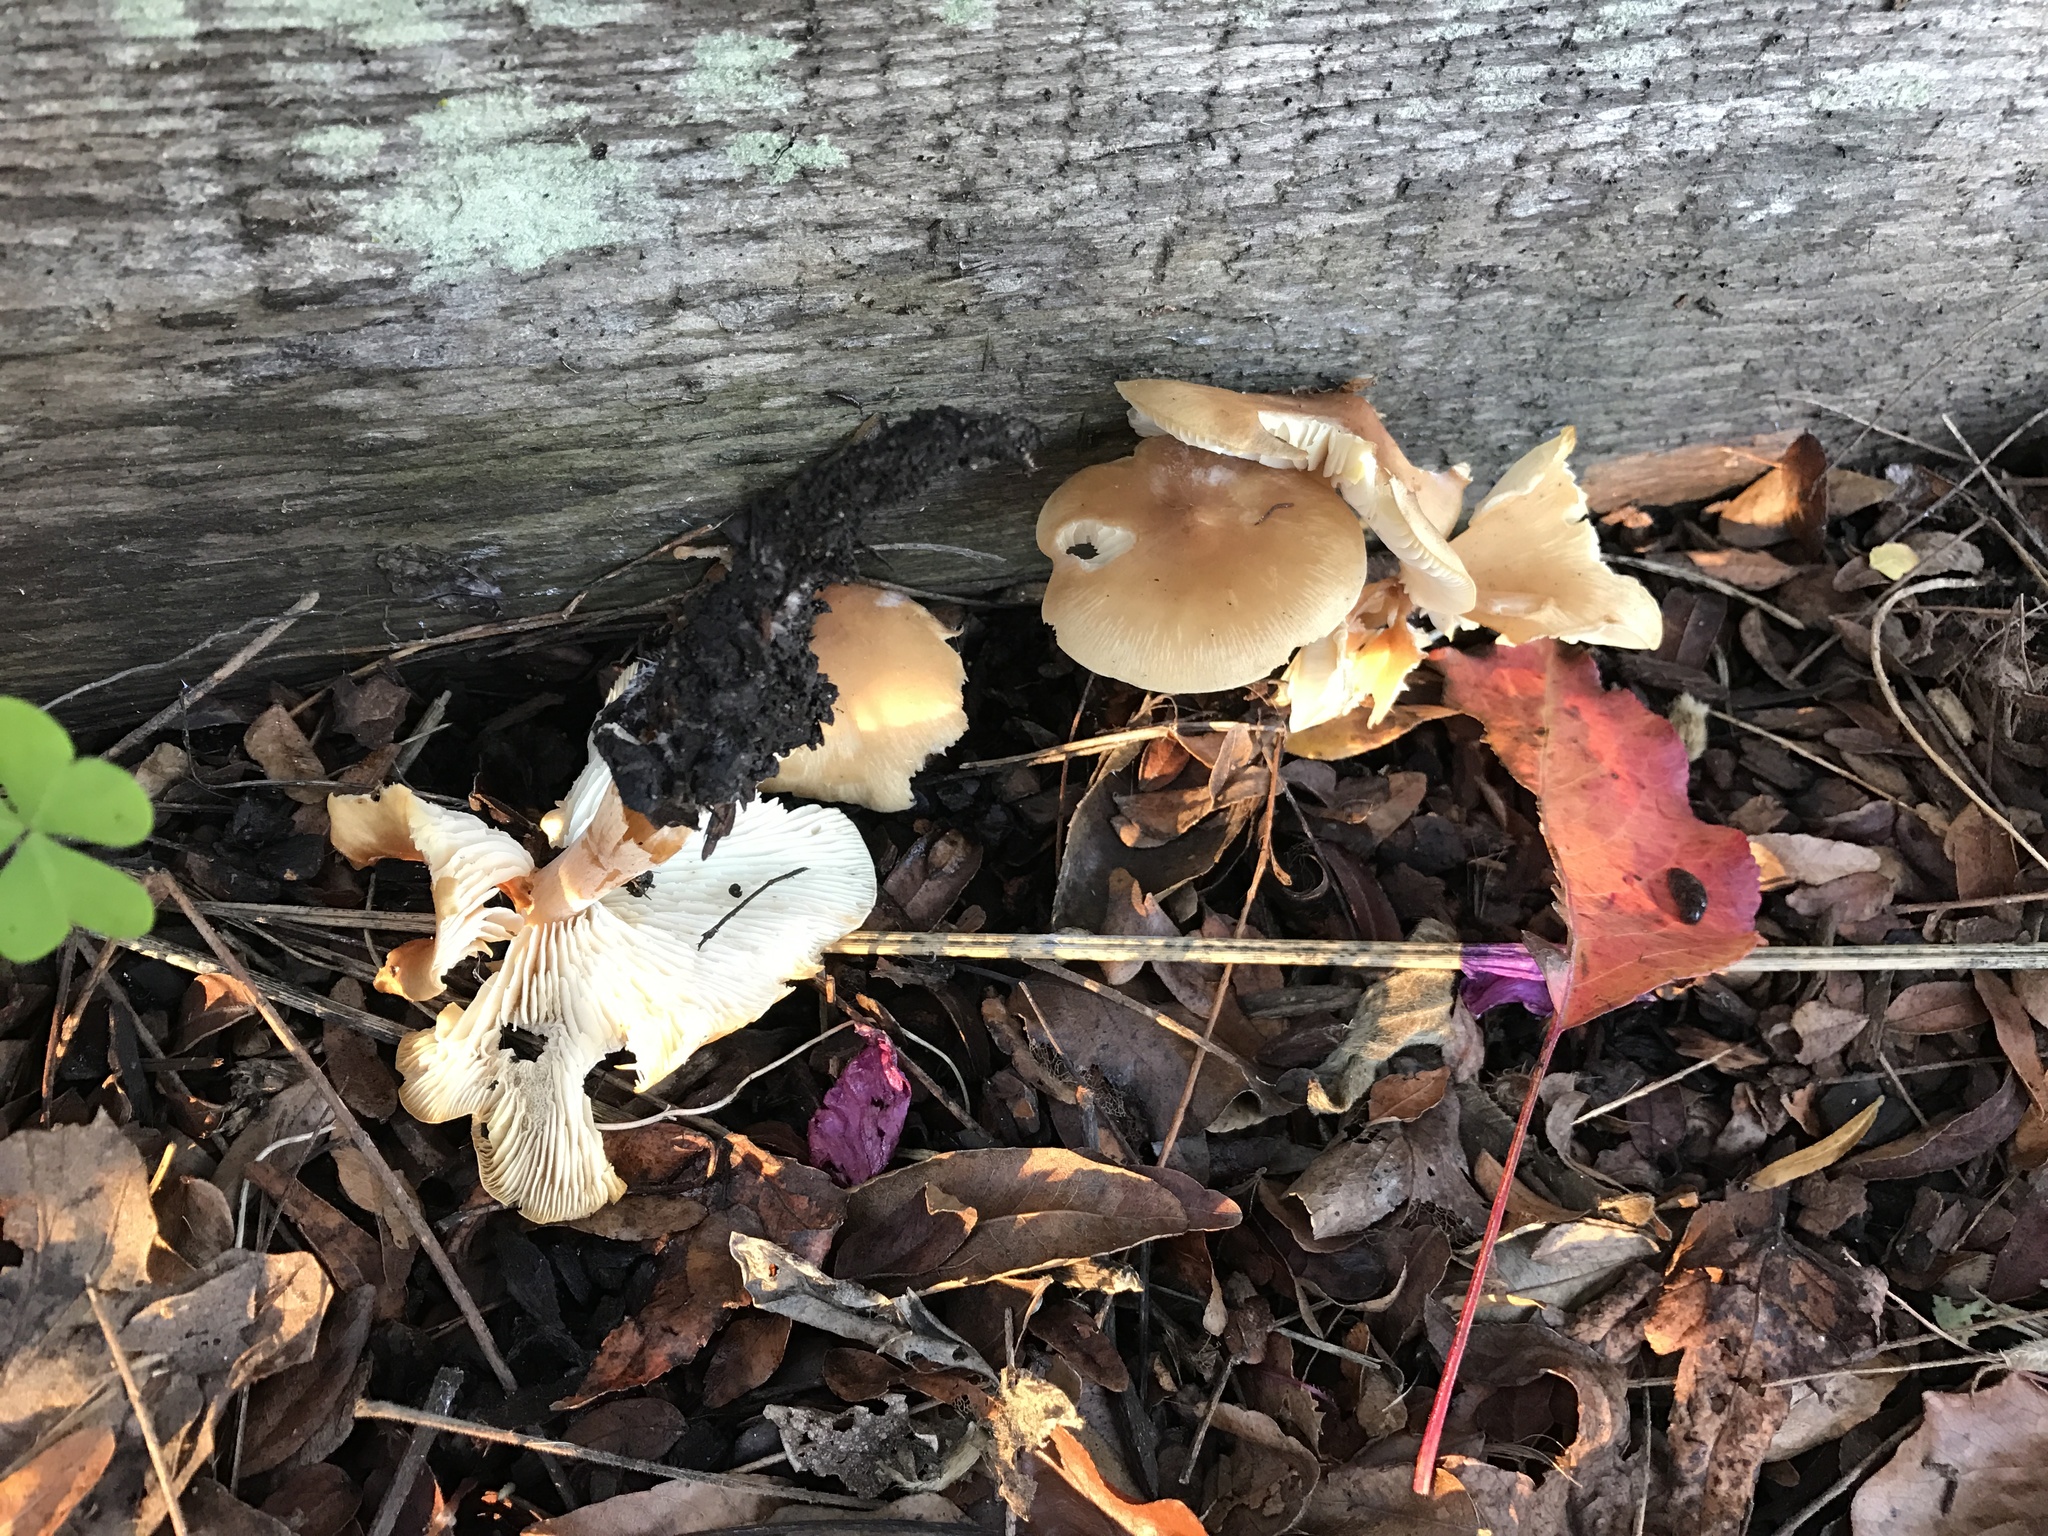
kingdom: Fungi
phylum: Basidiomycota
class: Agaricomycetes
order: Agaricales
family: Omphalotaceae
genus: Rhodocollybia
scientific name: Rhodocollybia butyracea
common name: Butter cap
